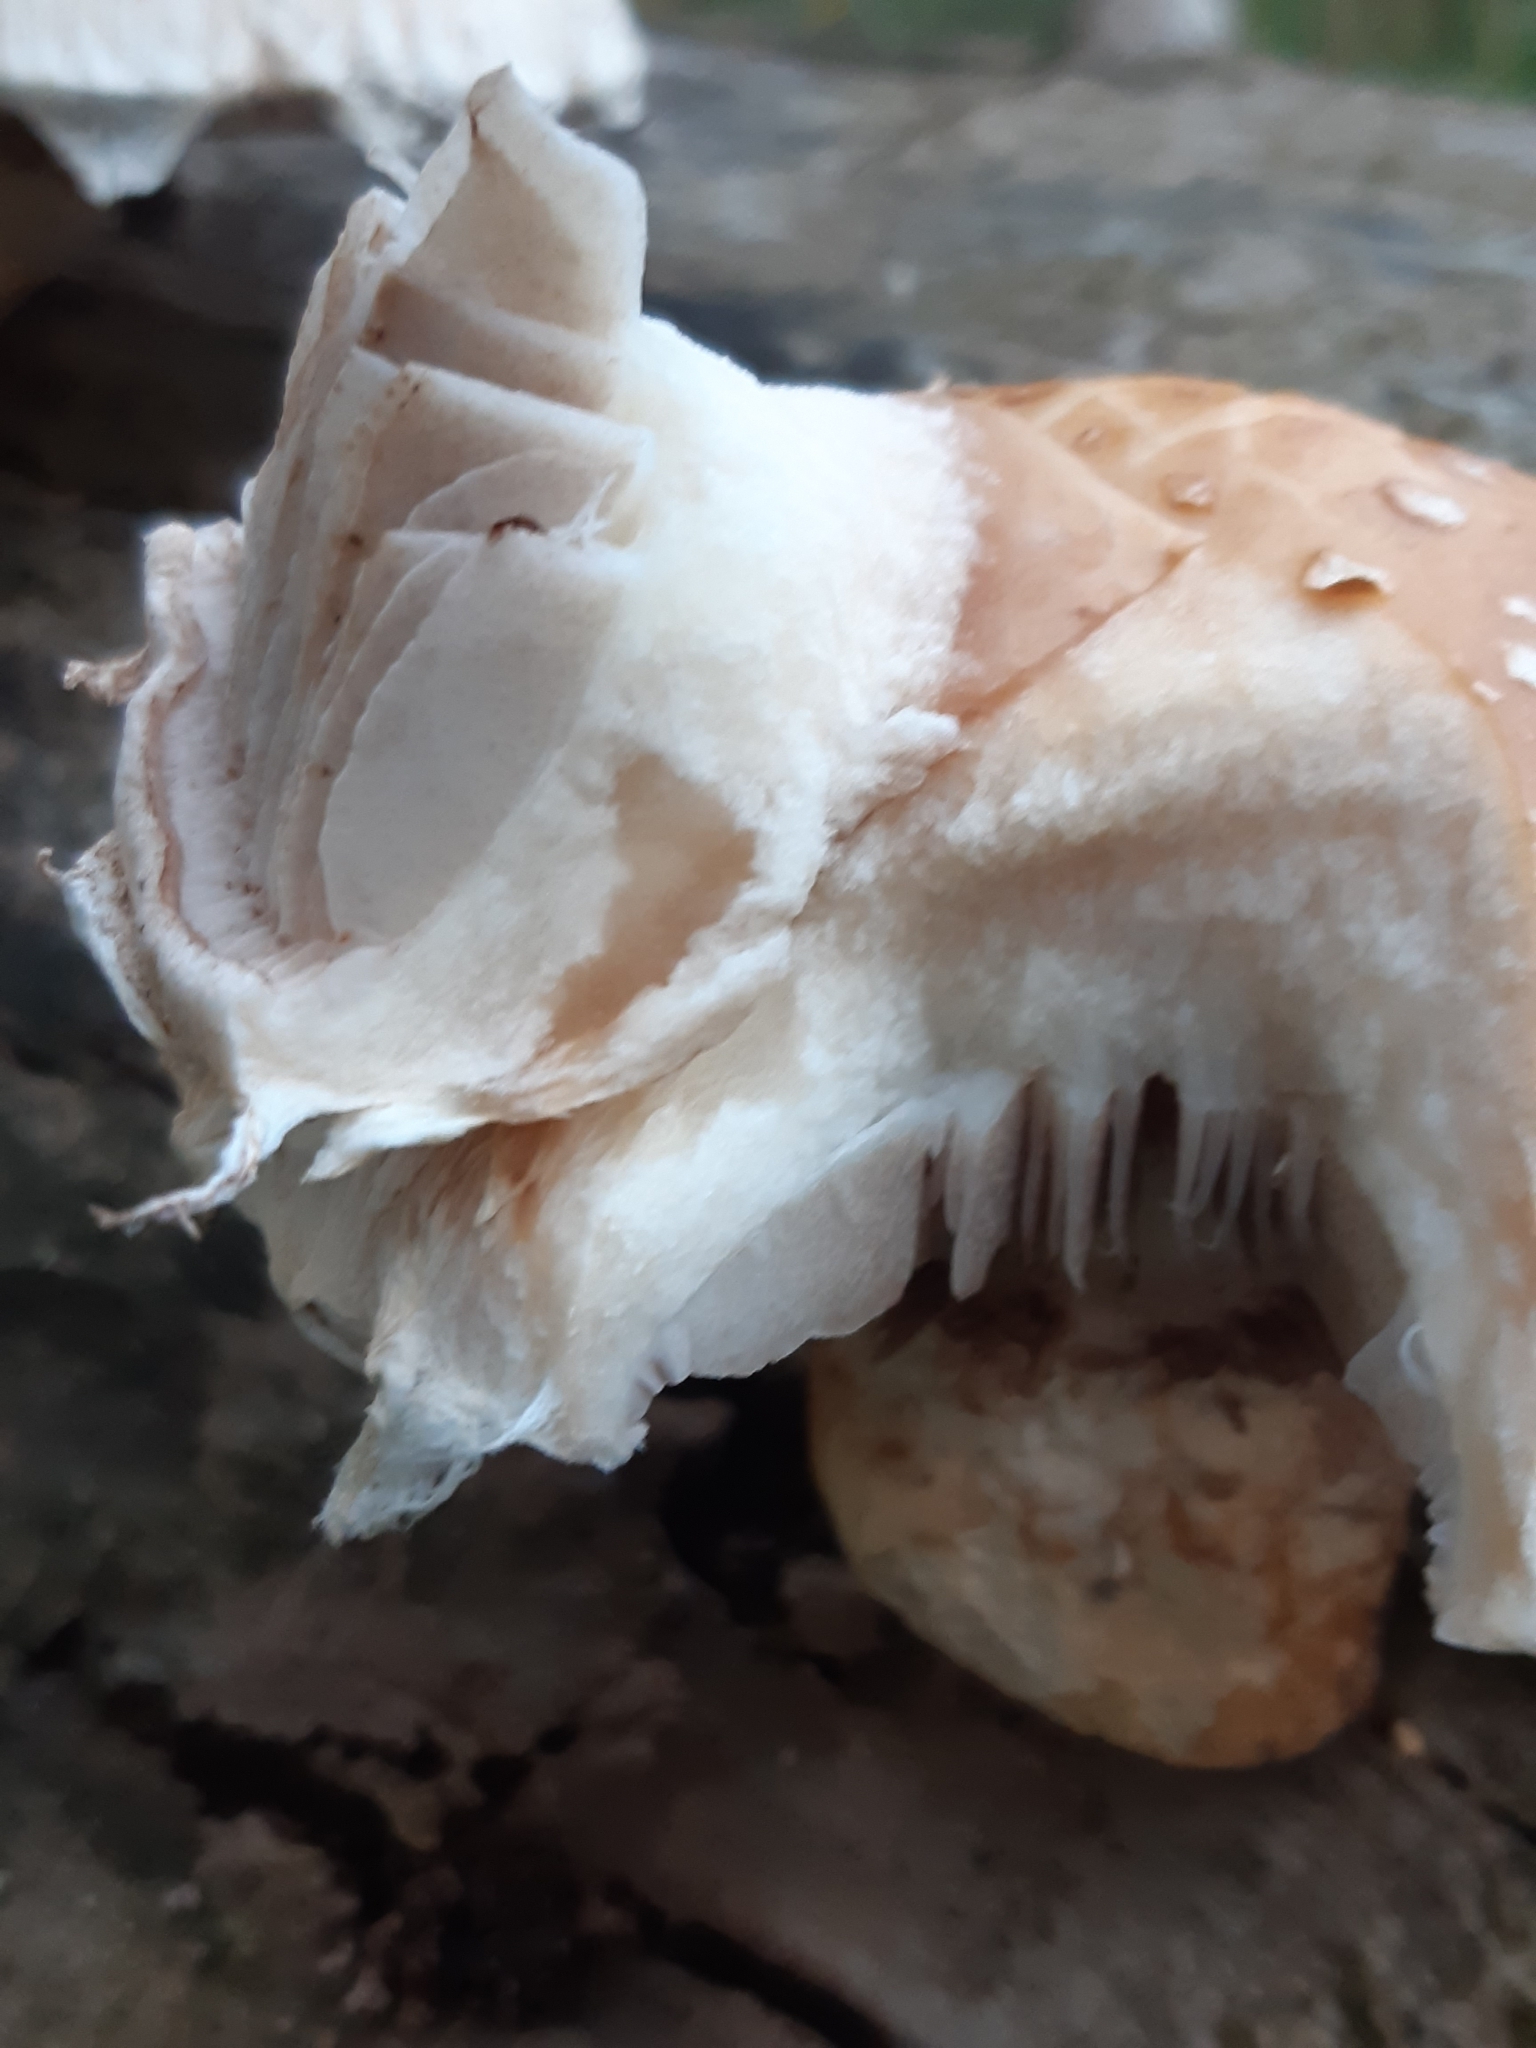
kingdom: Fungi
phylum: Basidiomycota
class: Agaricomycetes
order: Agaricales
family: Strophariaceae
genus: Pholiota
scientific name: Pholiota populnea
